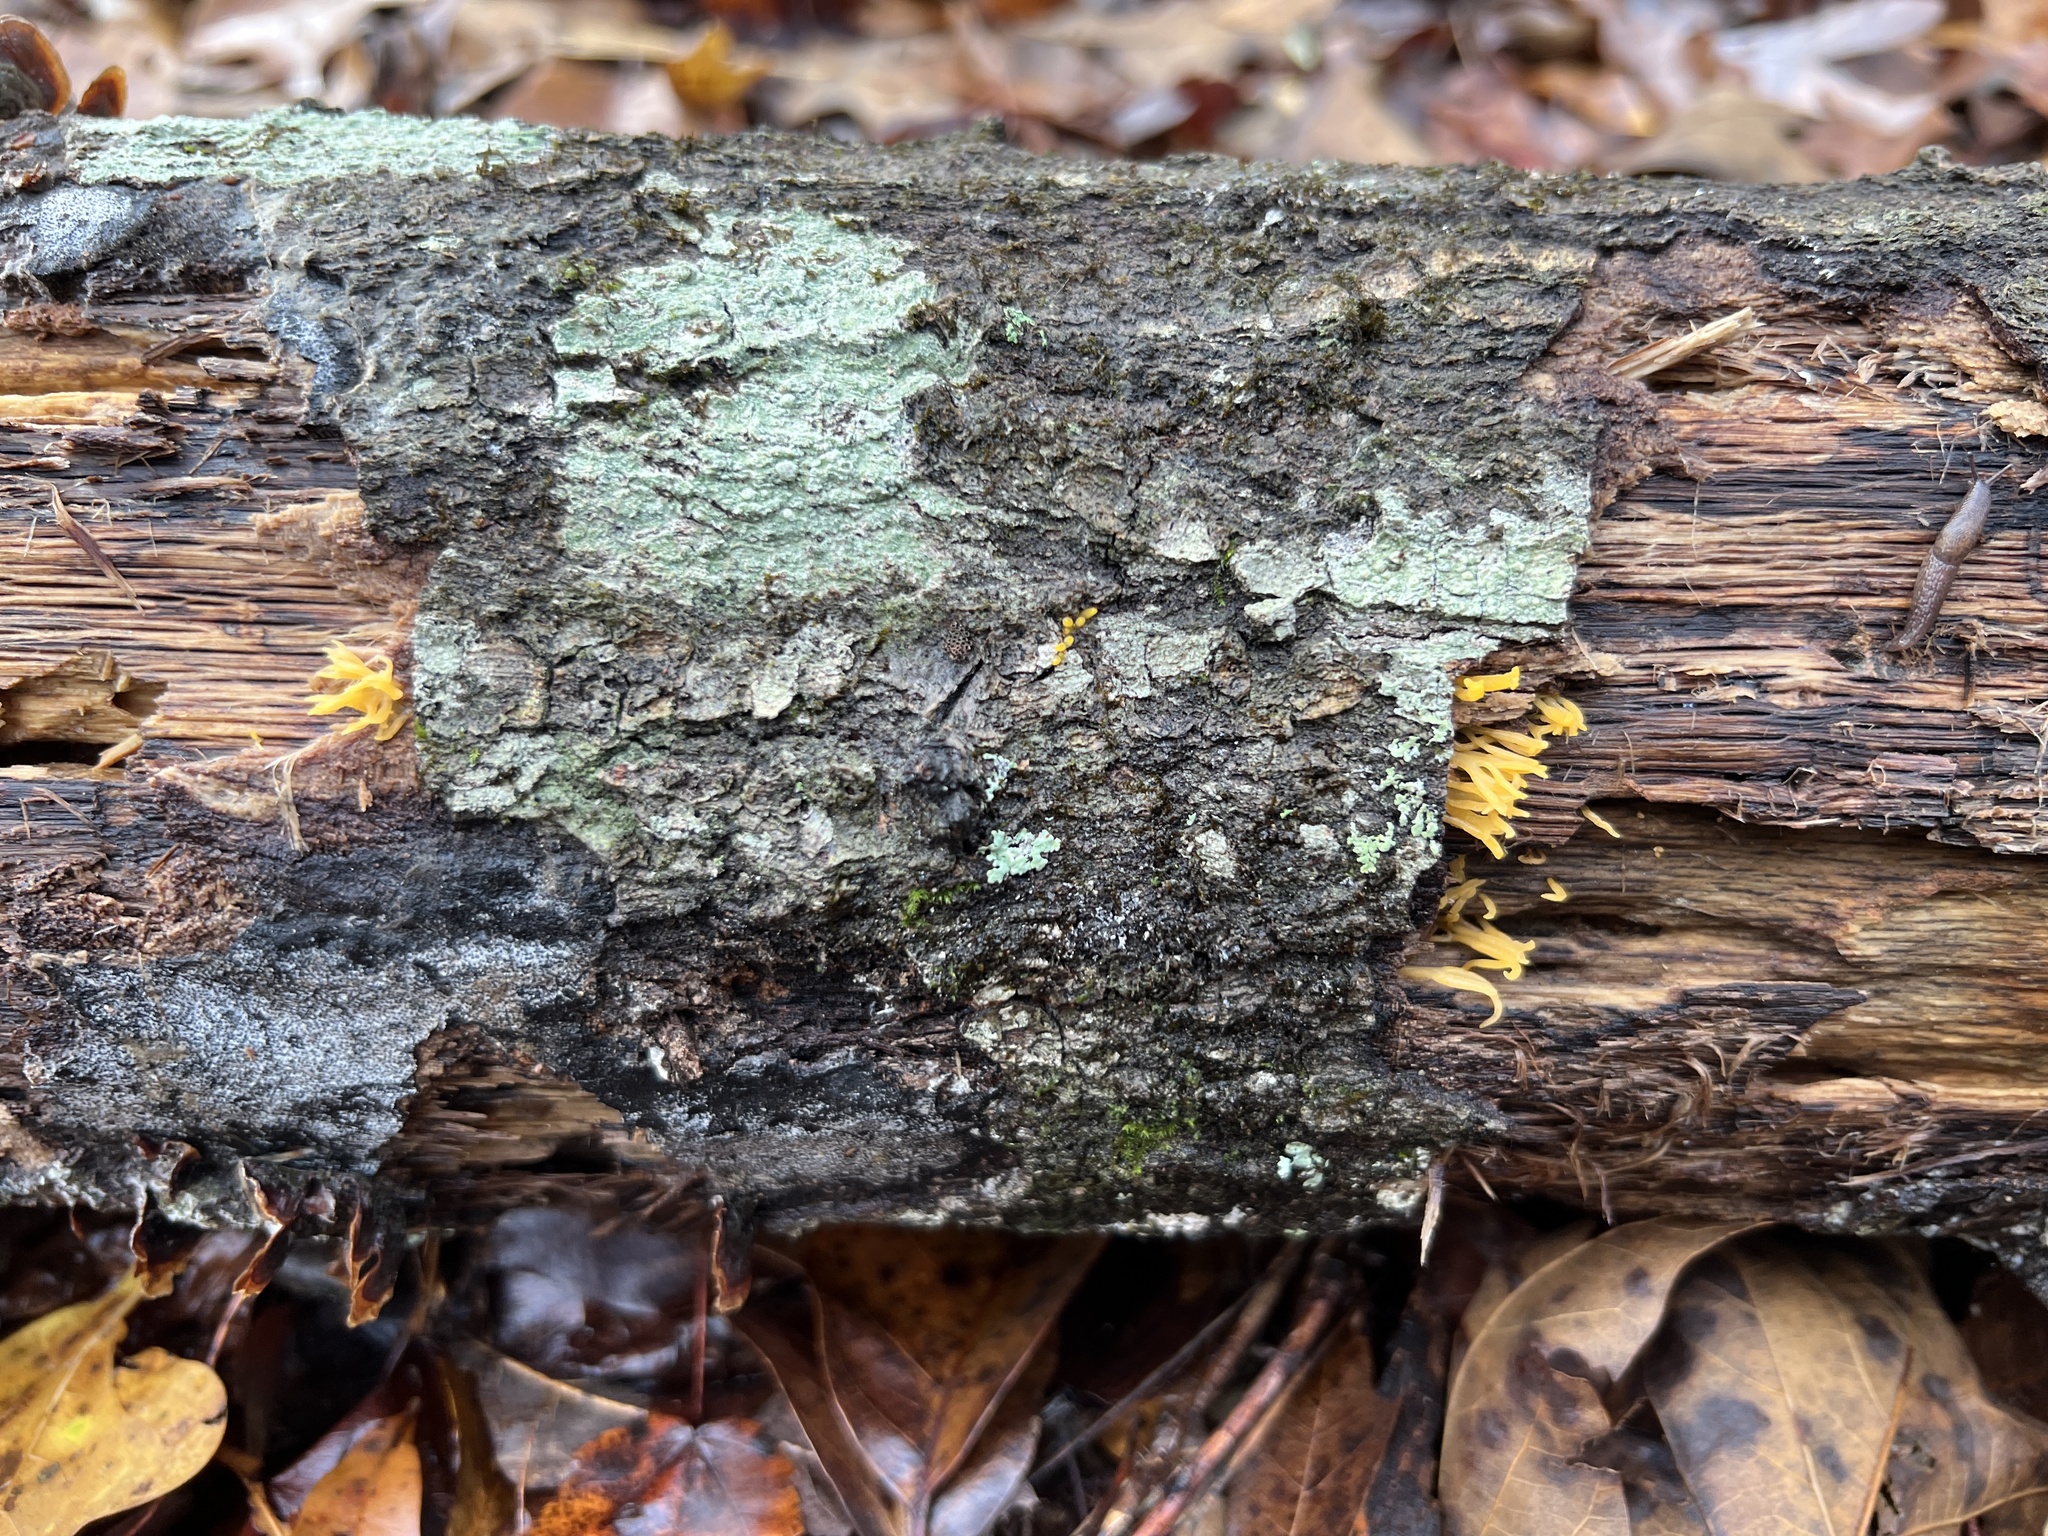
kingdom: Fungi
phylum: Basidiomycota
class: Dacrymycetes
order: Dacrymycetales
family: Dacrymycetaceae
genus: Calocera
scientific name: Calocera cornea
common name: Small stagshorn
